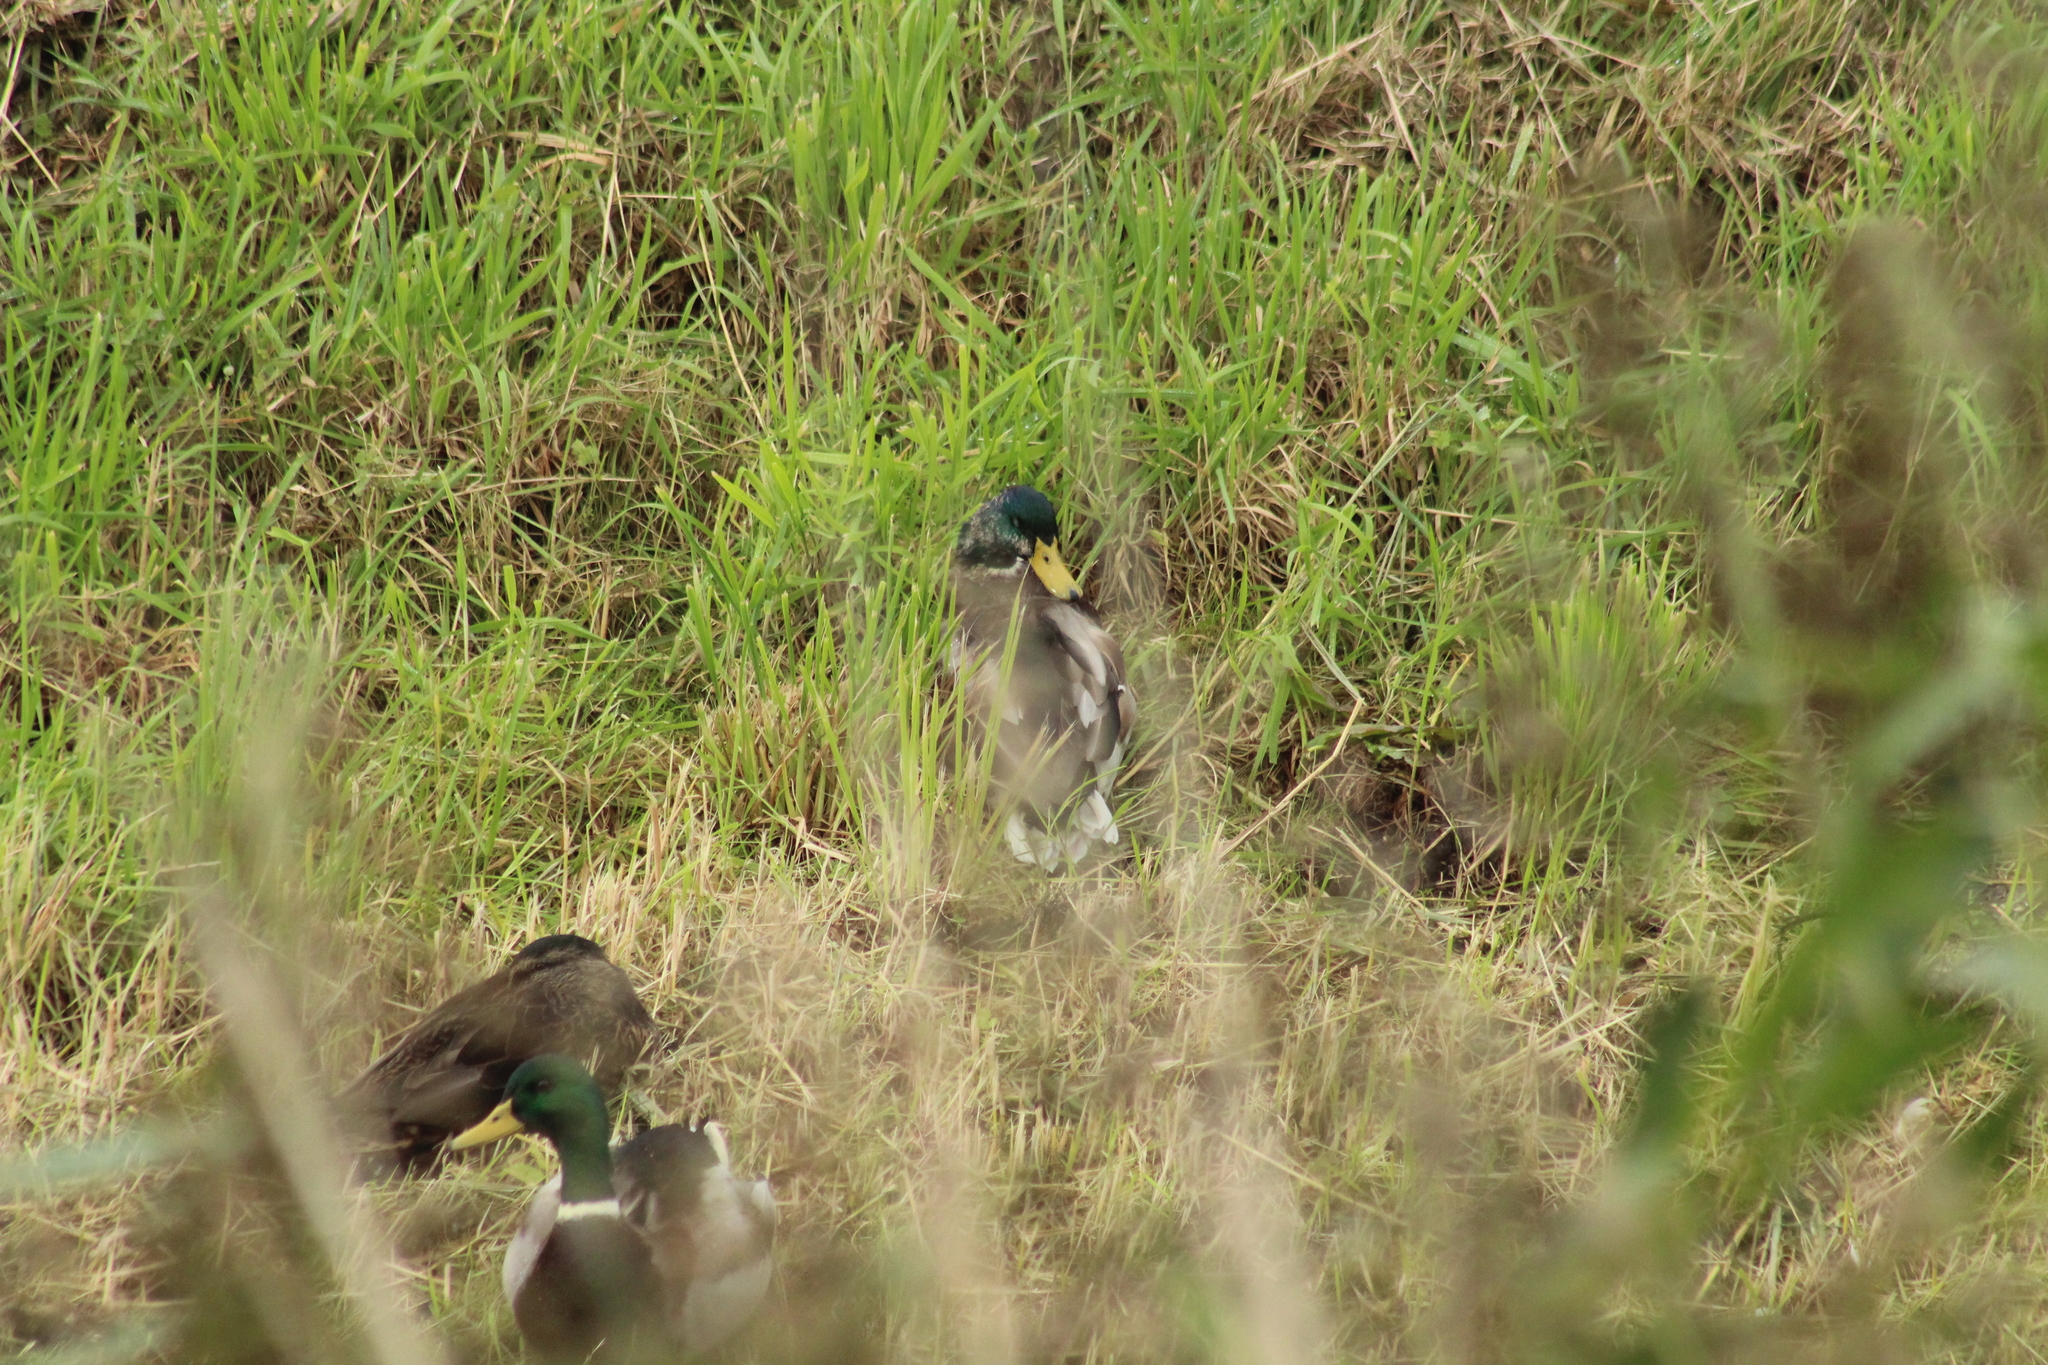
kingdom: Animalia
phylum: Chordata
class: Aves
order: Anseriformes
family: Anatidae
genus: Anas
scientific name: Anas platyrhynchos
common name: Mallard
